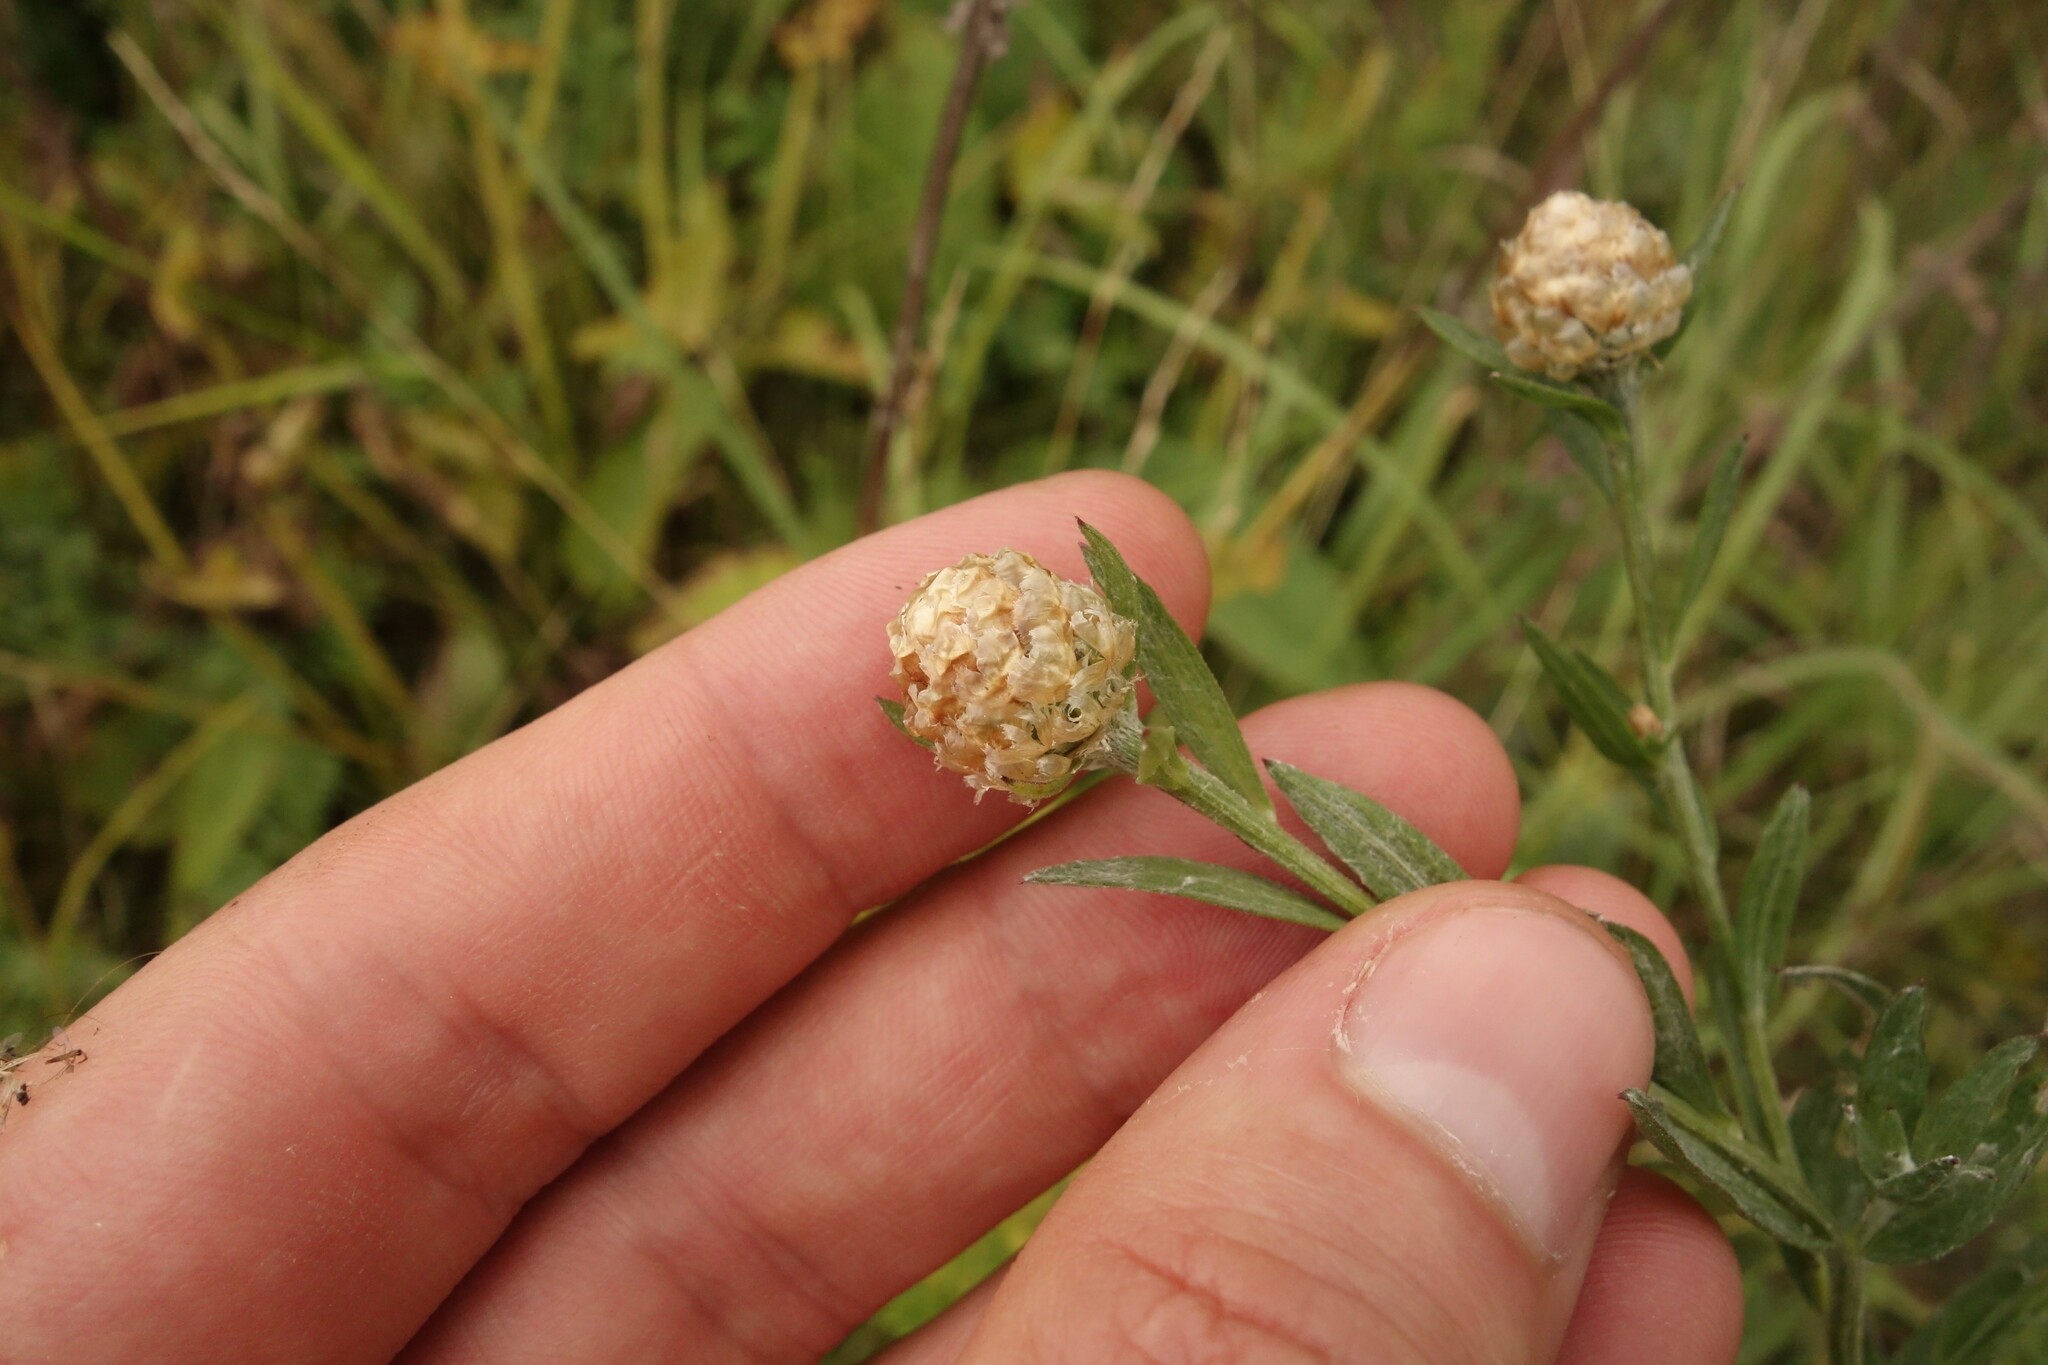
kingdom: Plantae
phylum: Tracheophyta
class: Magnoliopsida
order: Asterales
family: Asteraceae
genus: Centaurea
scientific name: Centaurea jacea
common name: Brown knapweed
